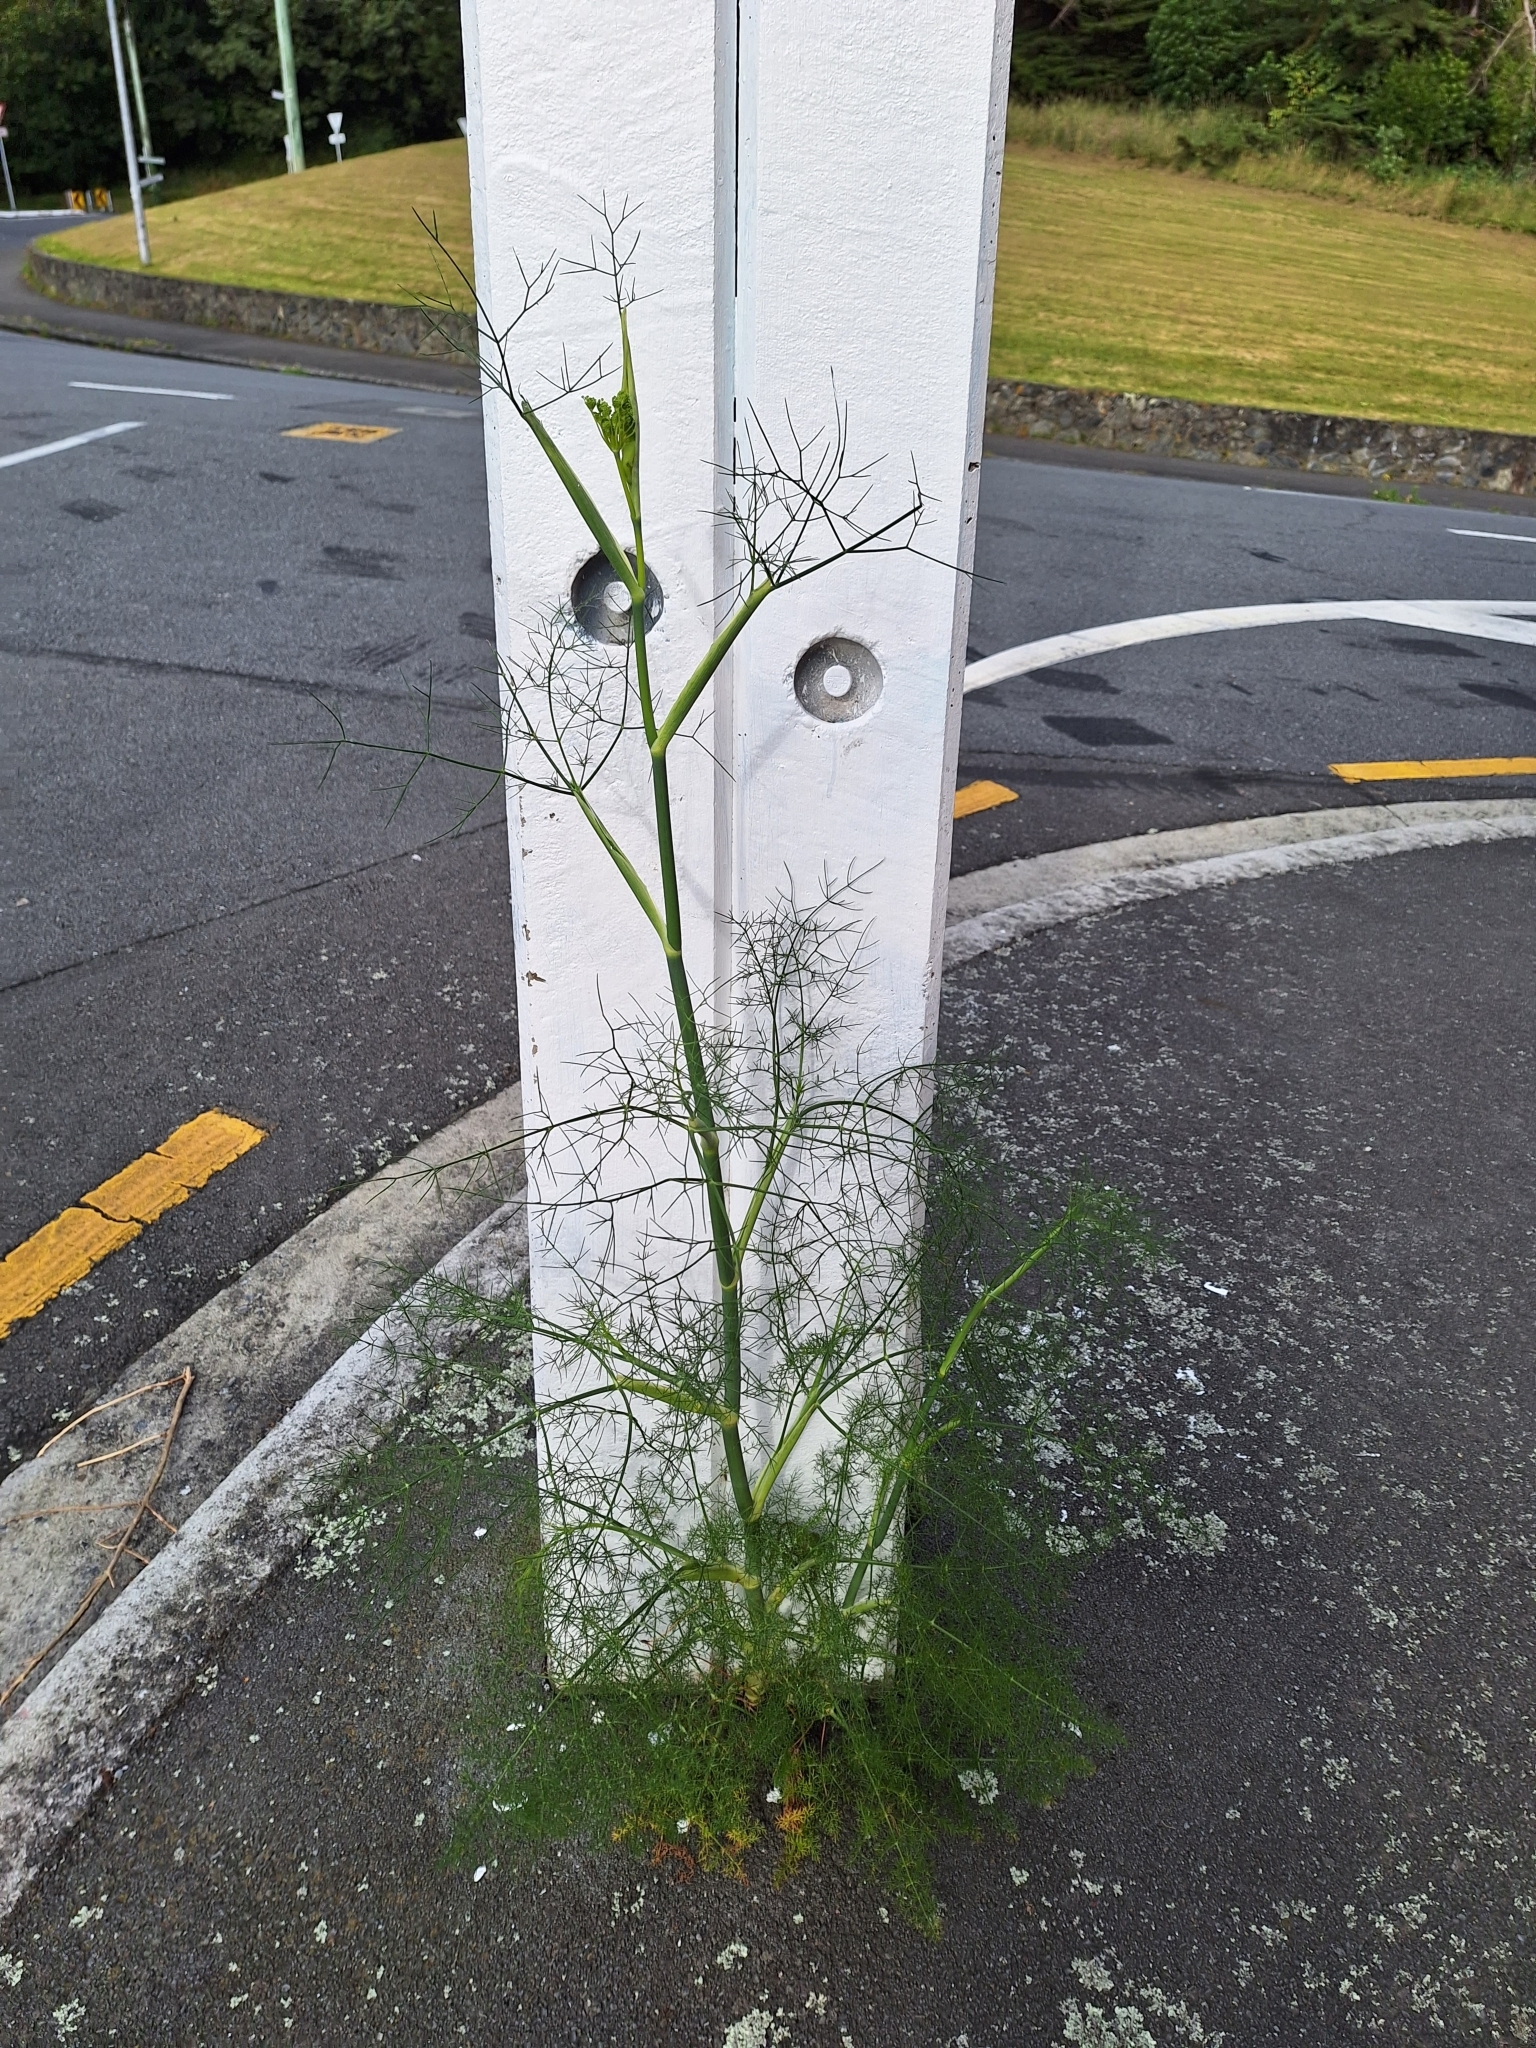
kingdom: Plantae
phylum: Tracheophyta
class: Magnoliopsida
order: Apiales
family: Apiaceae
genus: Foeniculum
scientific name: Foeniculum vulgare
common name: Fennel
